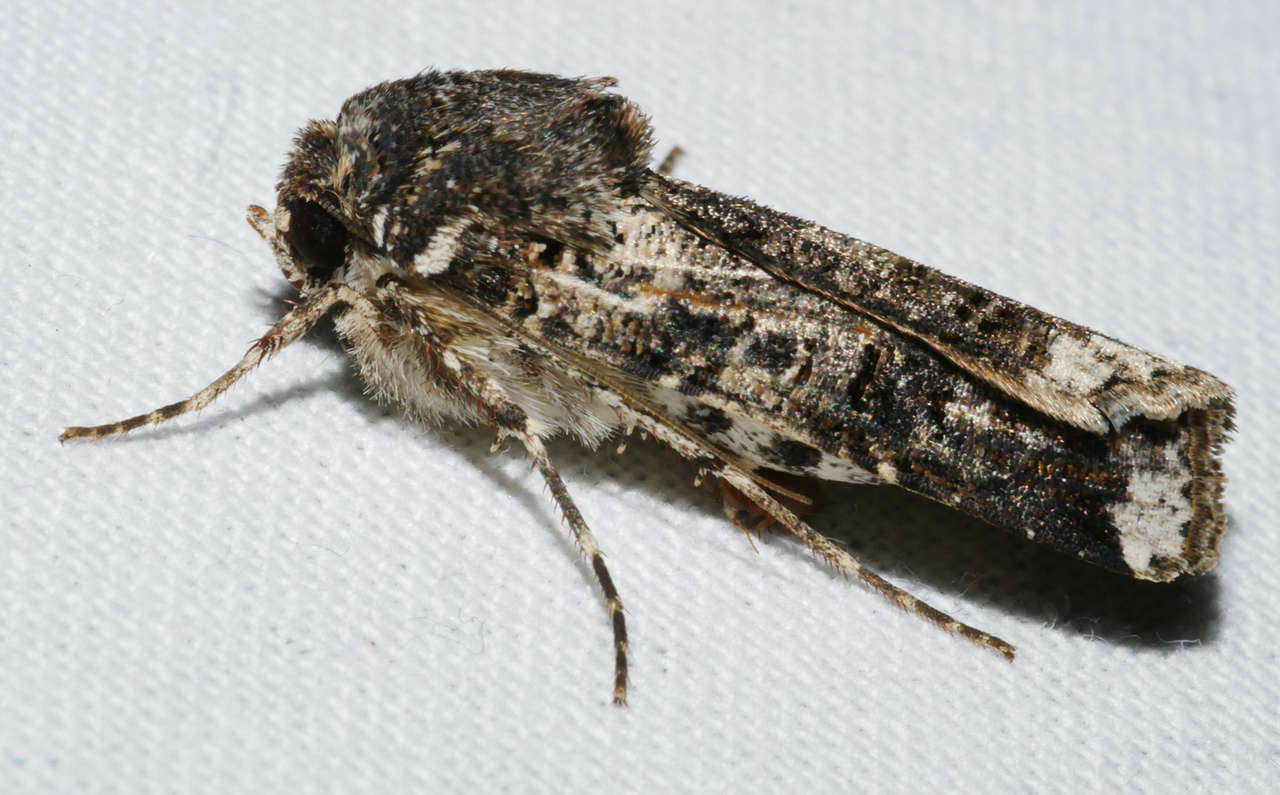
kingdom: Animalia
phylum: Arthropoda
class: Insecta
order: Lepidoptera
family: Noctuidae
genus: Agrotis
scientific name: Agrotis porphyricollis
